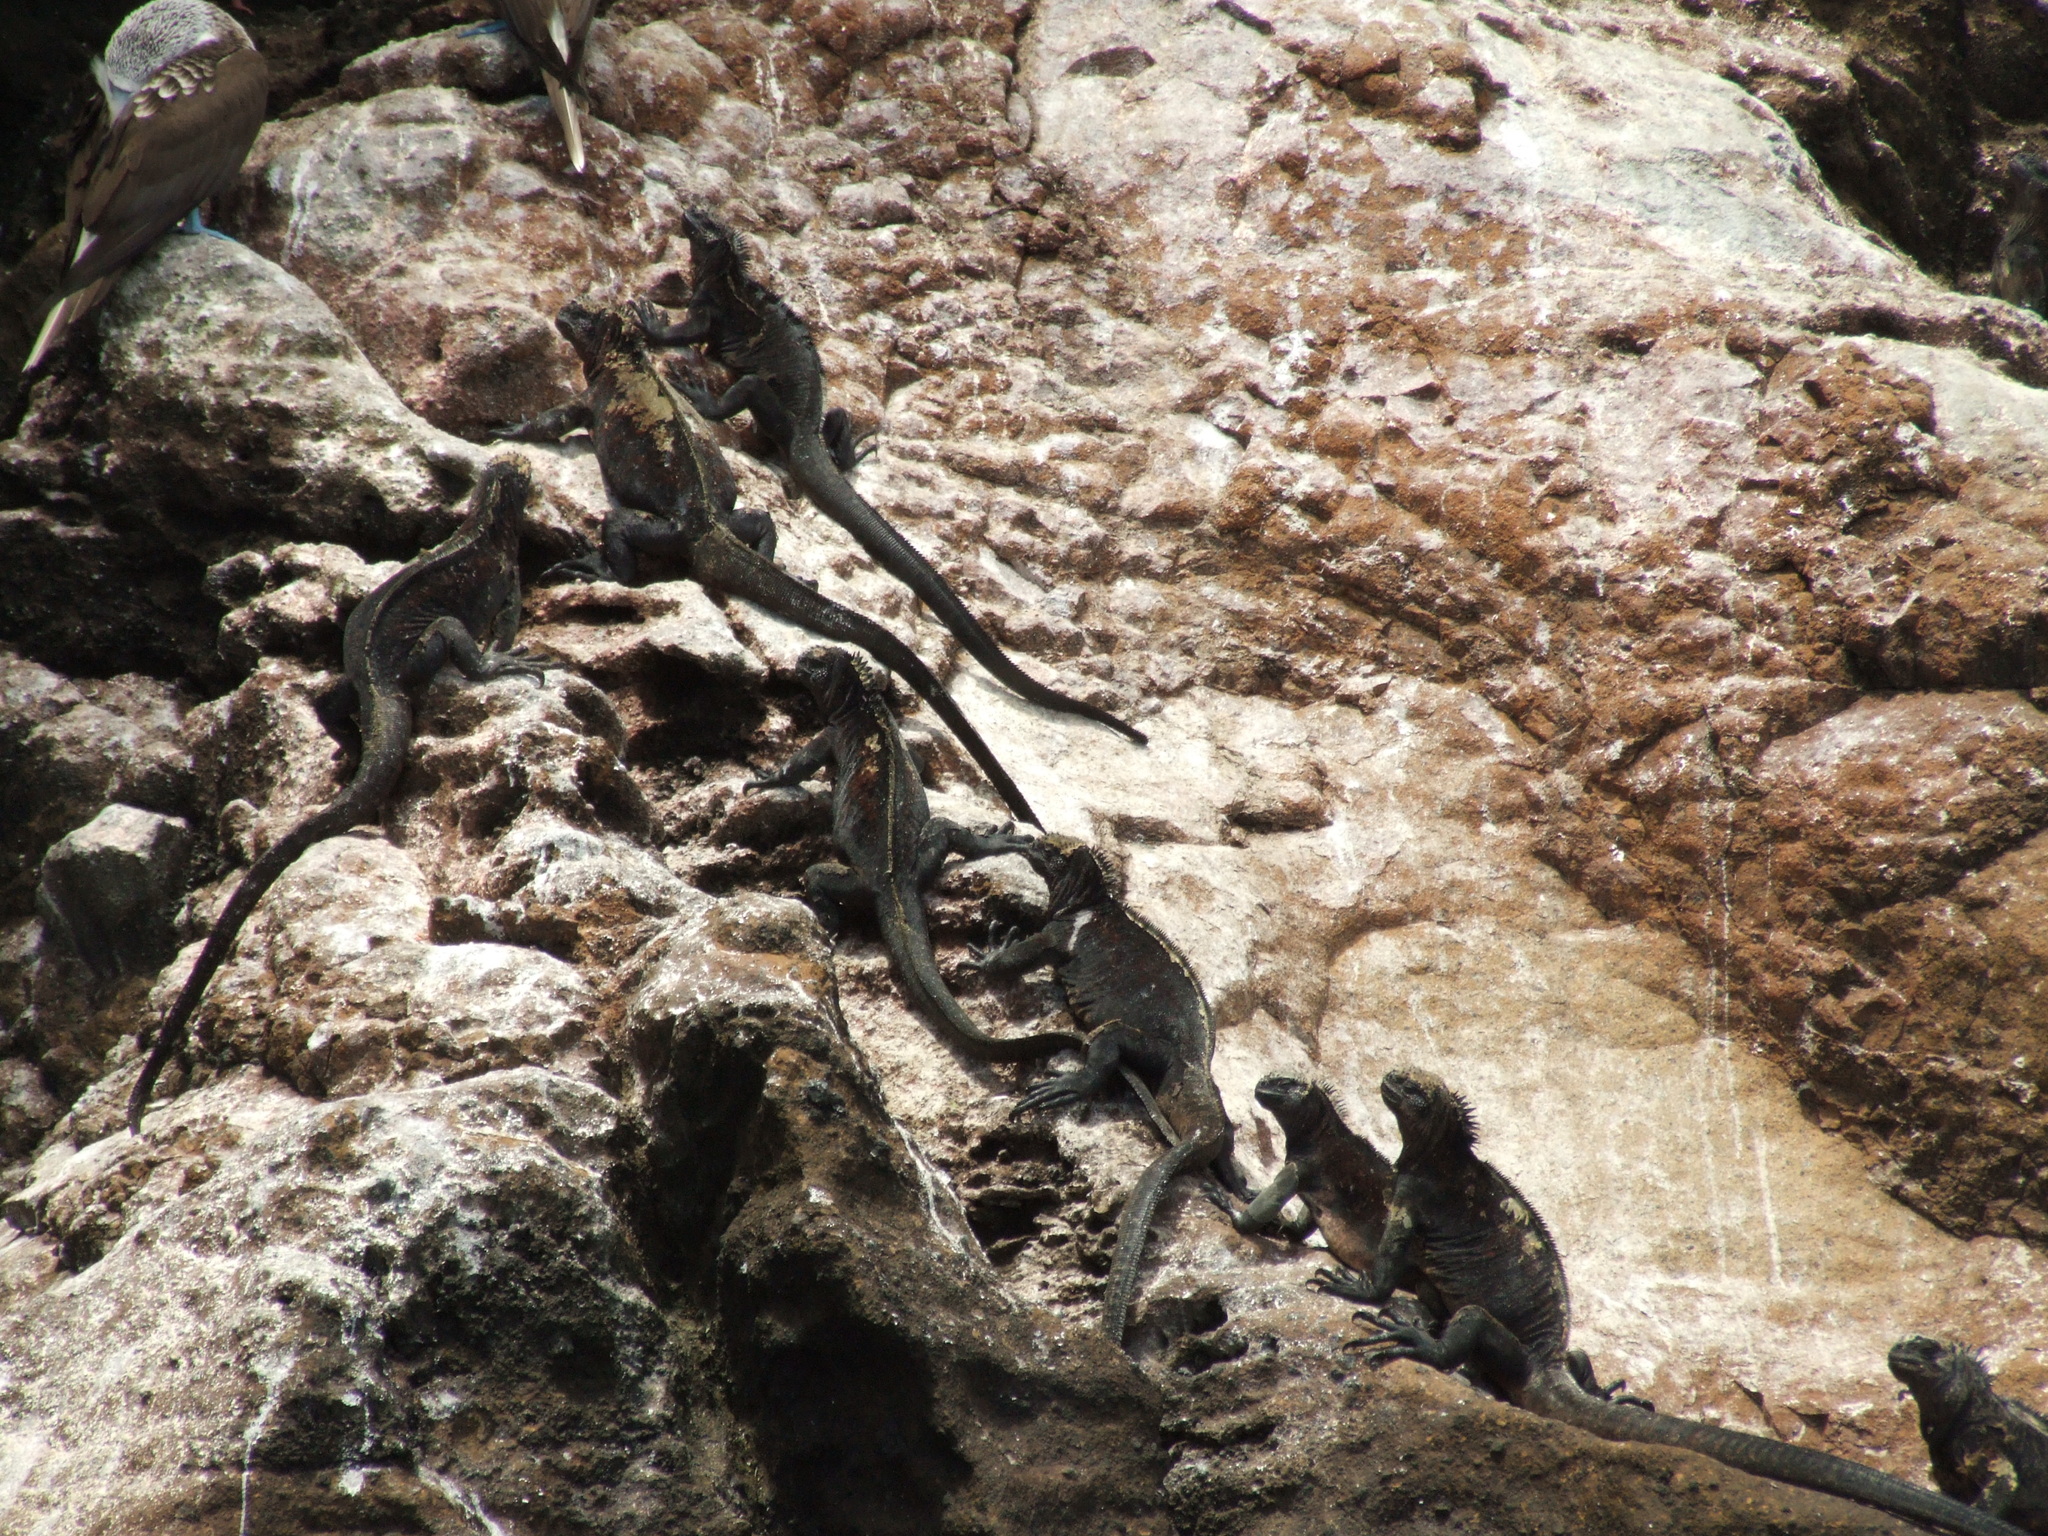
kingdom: Animalia
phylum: Chordata
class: Squamata
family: Iguanidae
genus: Amblyrhynchus
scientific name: Amblyrhynchus cristatus
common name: Marine iguana
